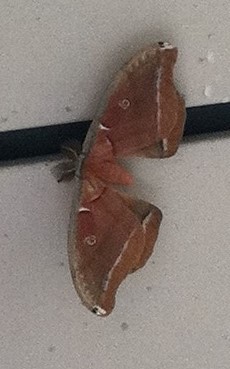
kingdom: Animalia
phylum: Arthropoda
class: Insecta
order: Lepidoptera
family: Saturniidae
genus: Antheraea
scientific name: Antheraea polyphemus
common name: Polyphemus moth
